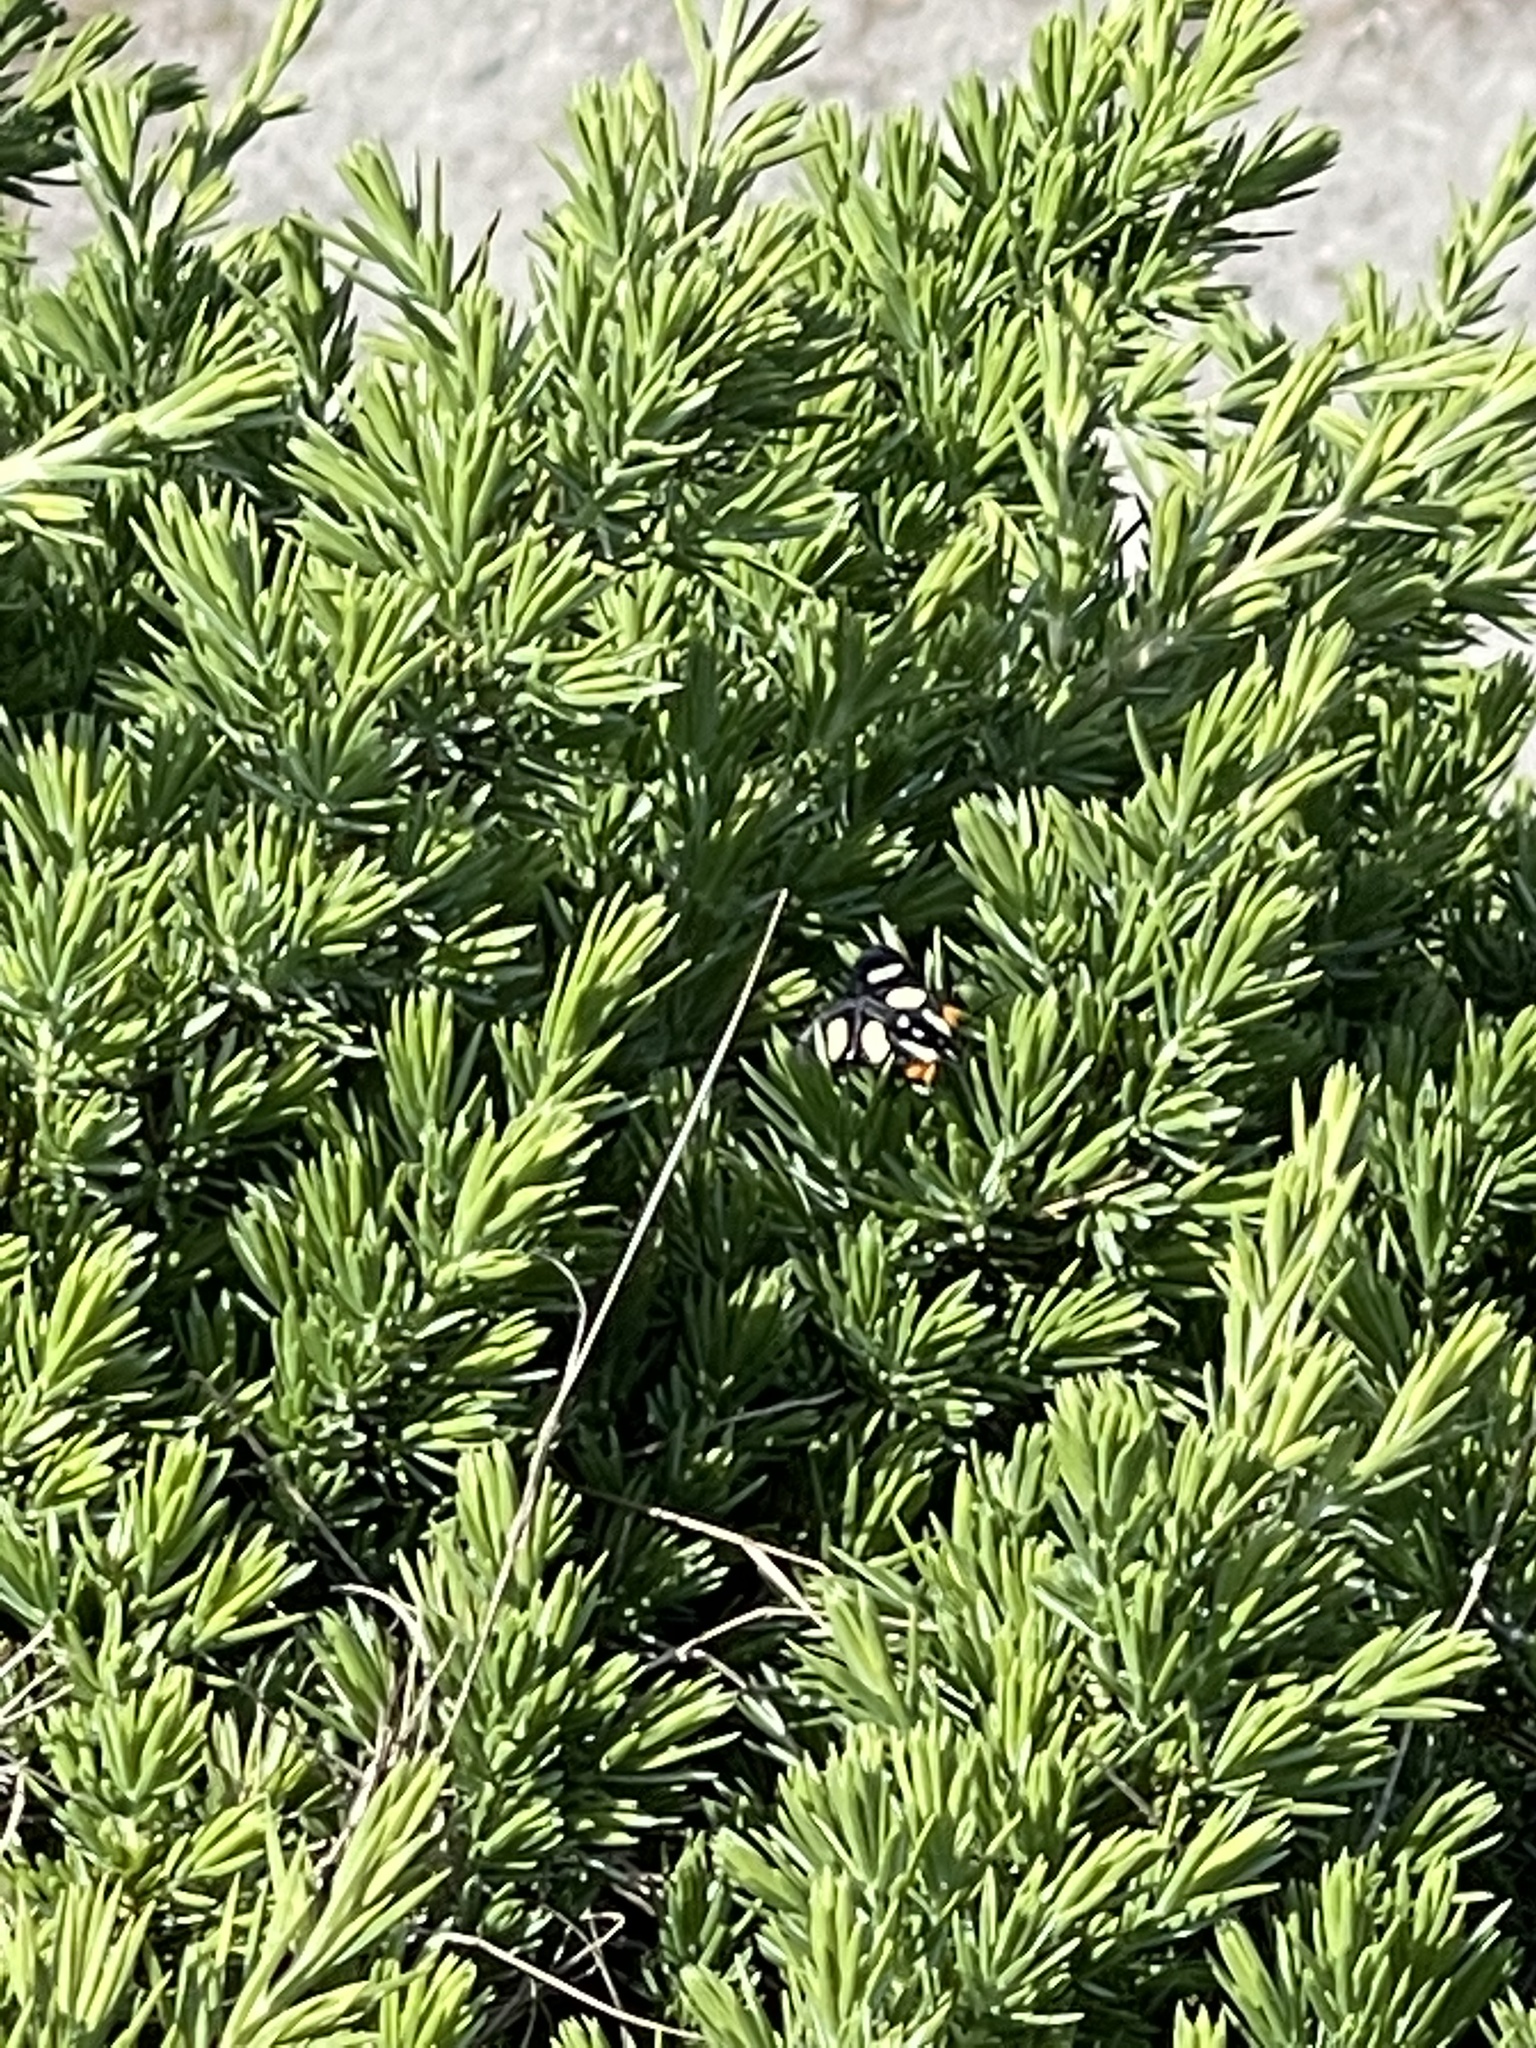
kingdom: Animalia
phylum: Arthropoda
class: Insecta
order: Lepidoptera
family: Noctuidae
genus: Alypia
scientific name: Alypia wittfeldii
